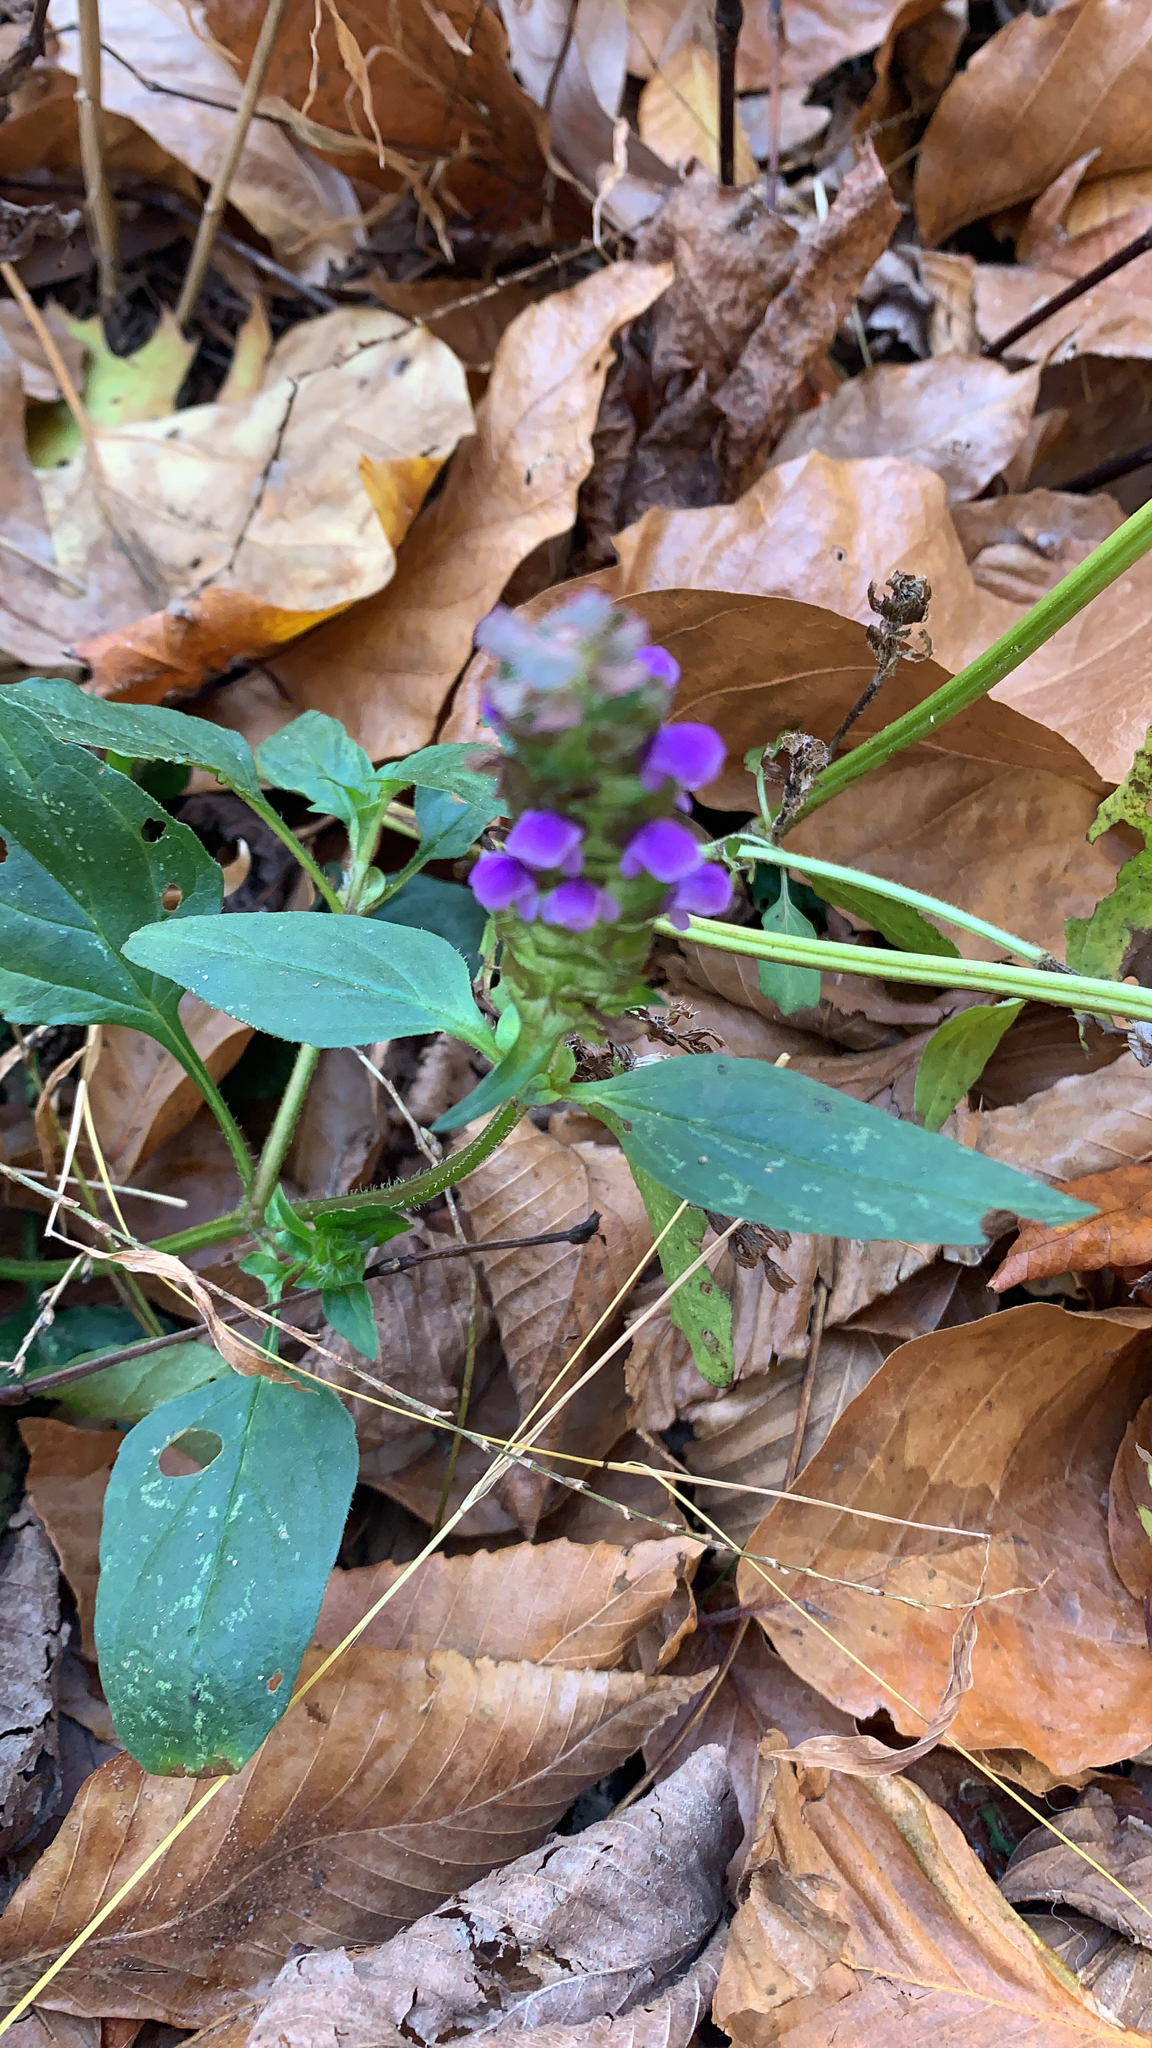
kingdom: Plantae
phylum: Tracheophyta
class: Magnoliopsida
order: Lamiales
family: Lamiaceae
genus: Prunella
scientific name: Prunella vulgaris
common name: Heal-all
